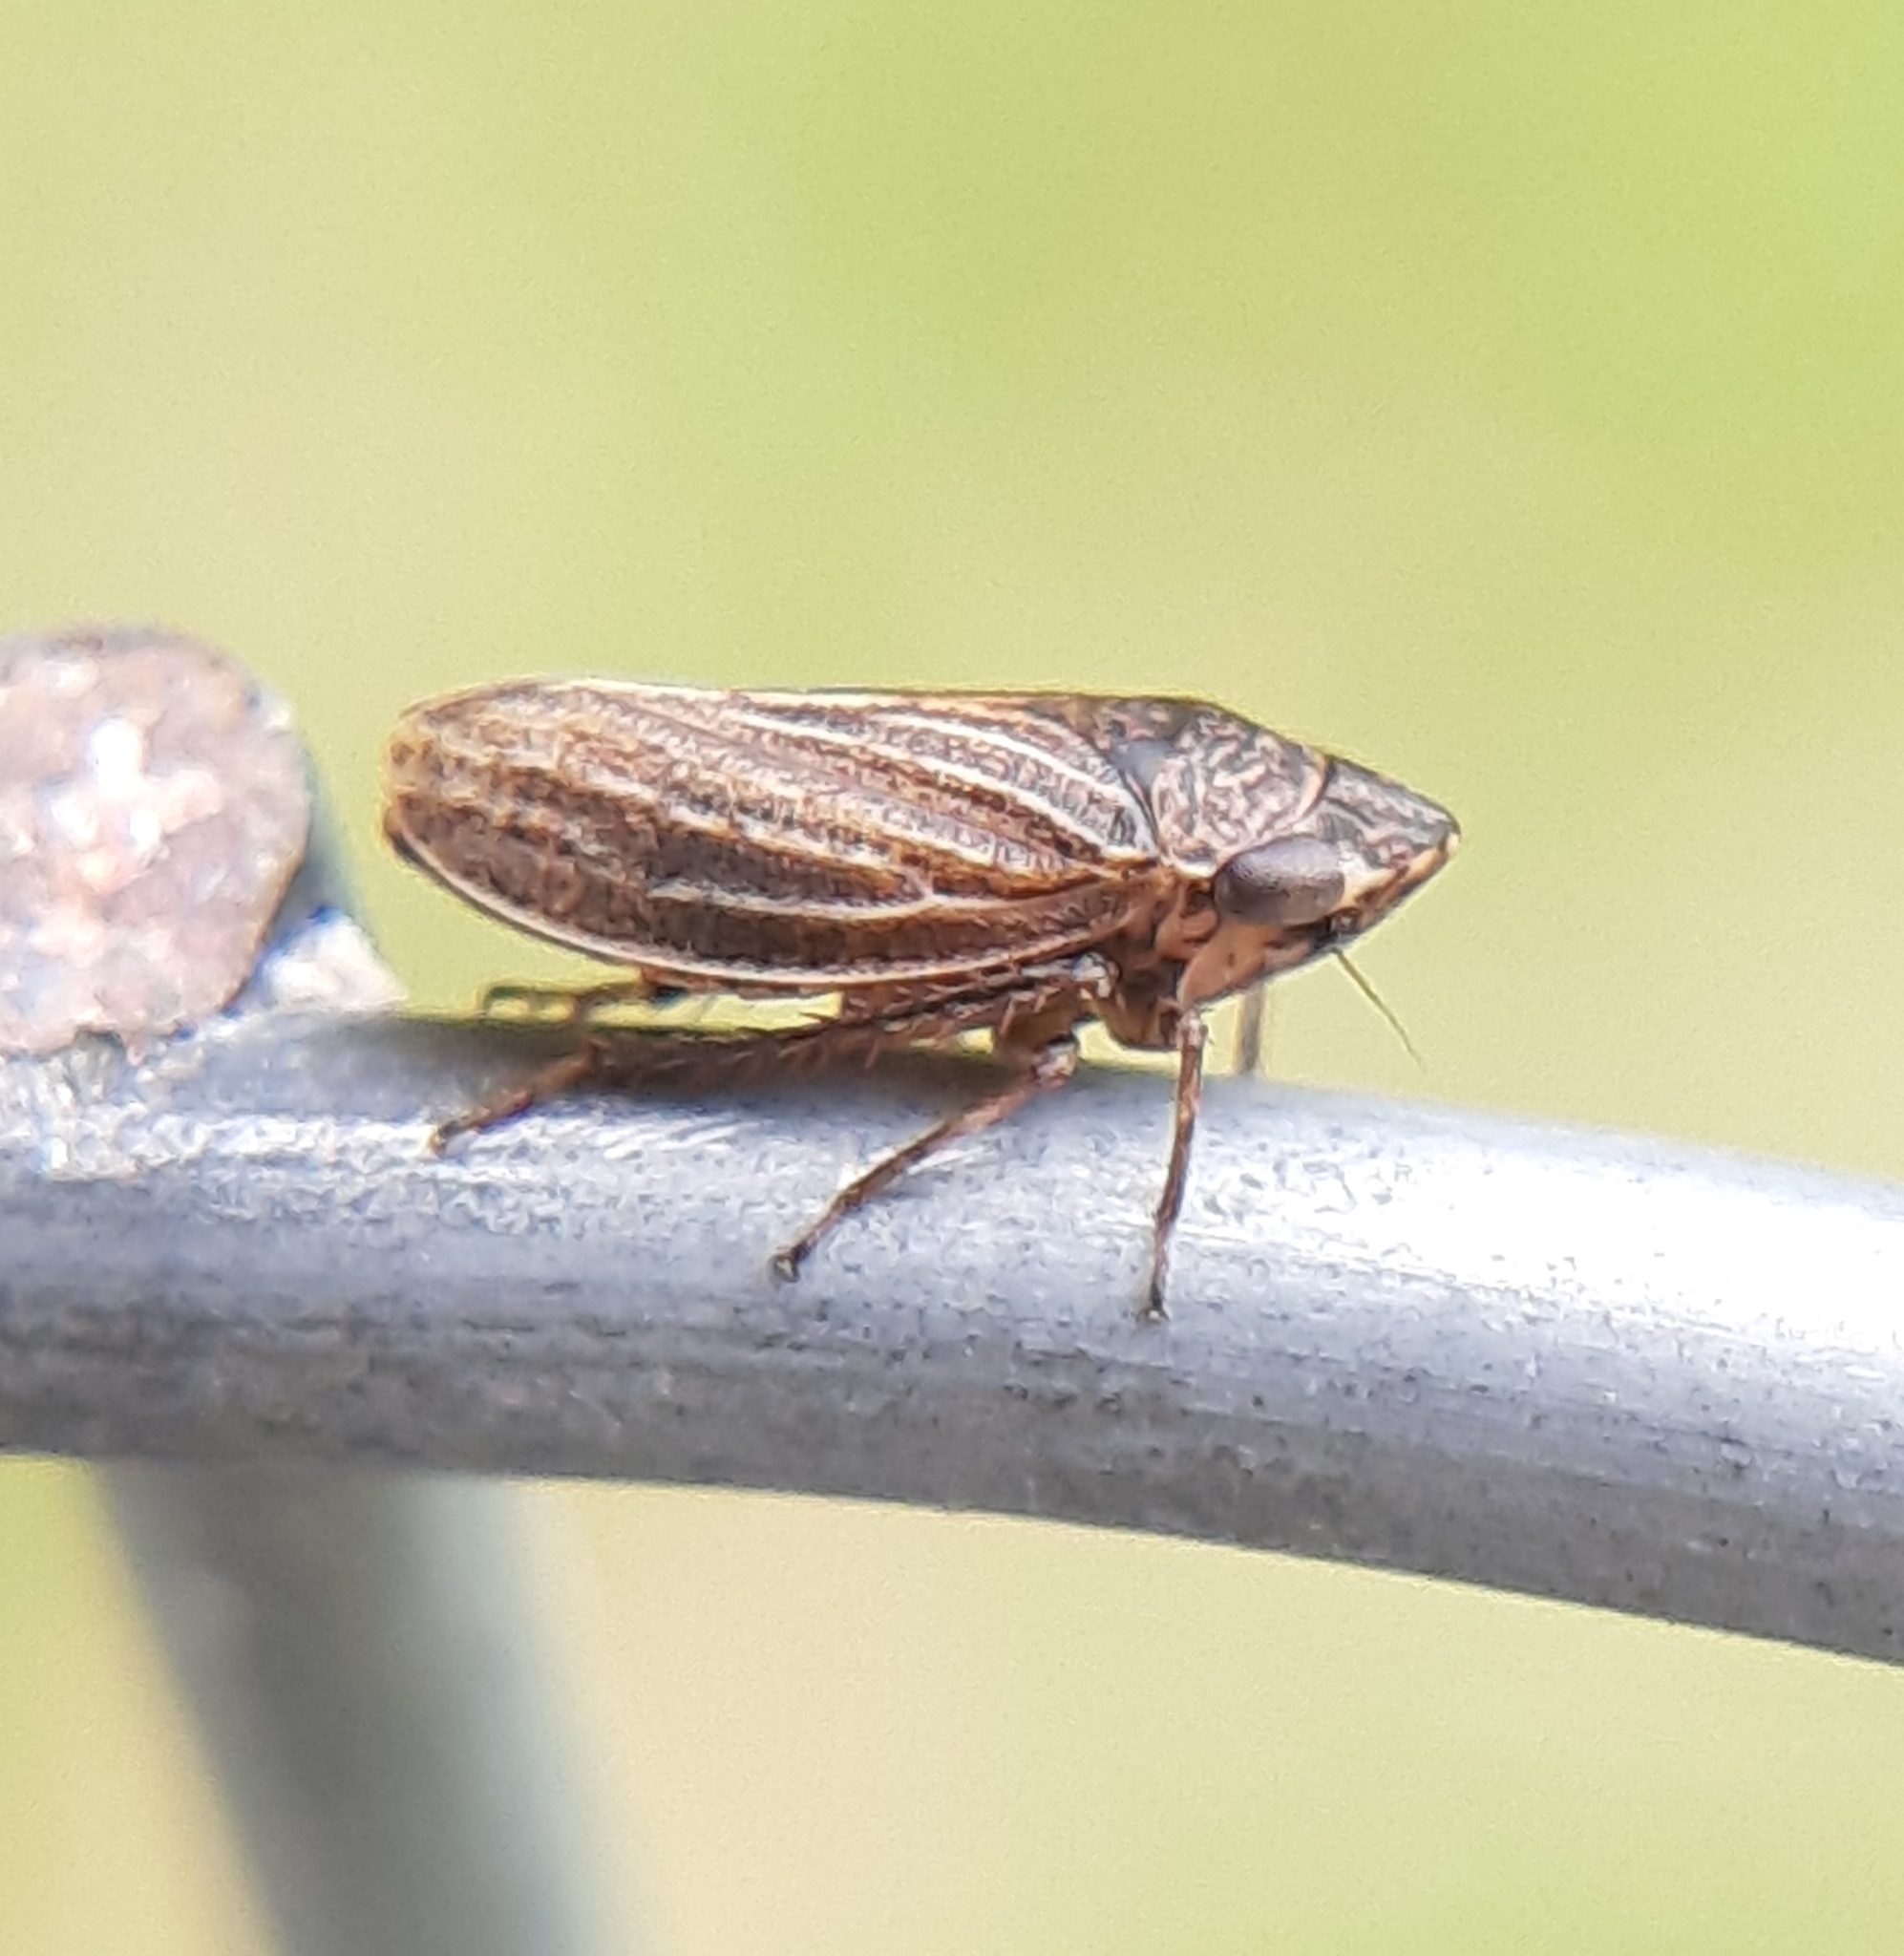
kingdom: Animalia
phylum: Arthropoda
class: Insecta
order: Hemiptera
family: Cicadellidae
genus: Anoscopus
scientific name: Anoscopus flavostriatus
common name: Leafhopper
